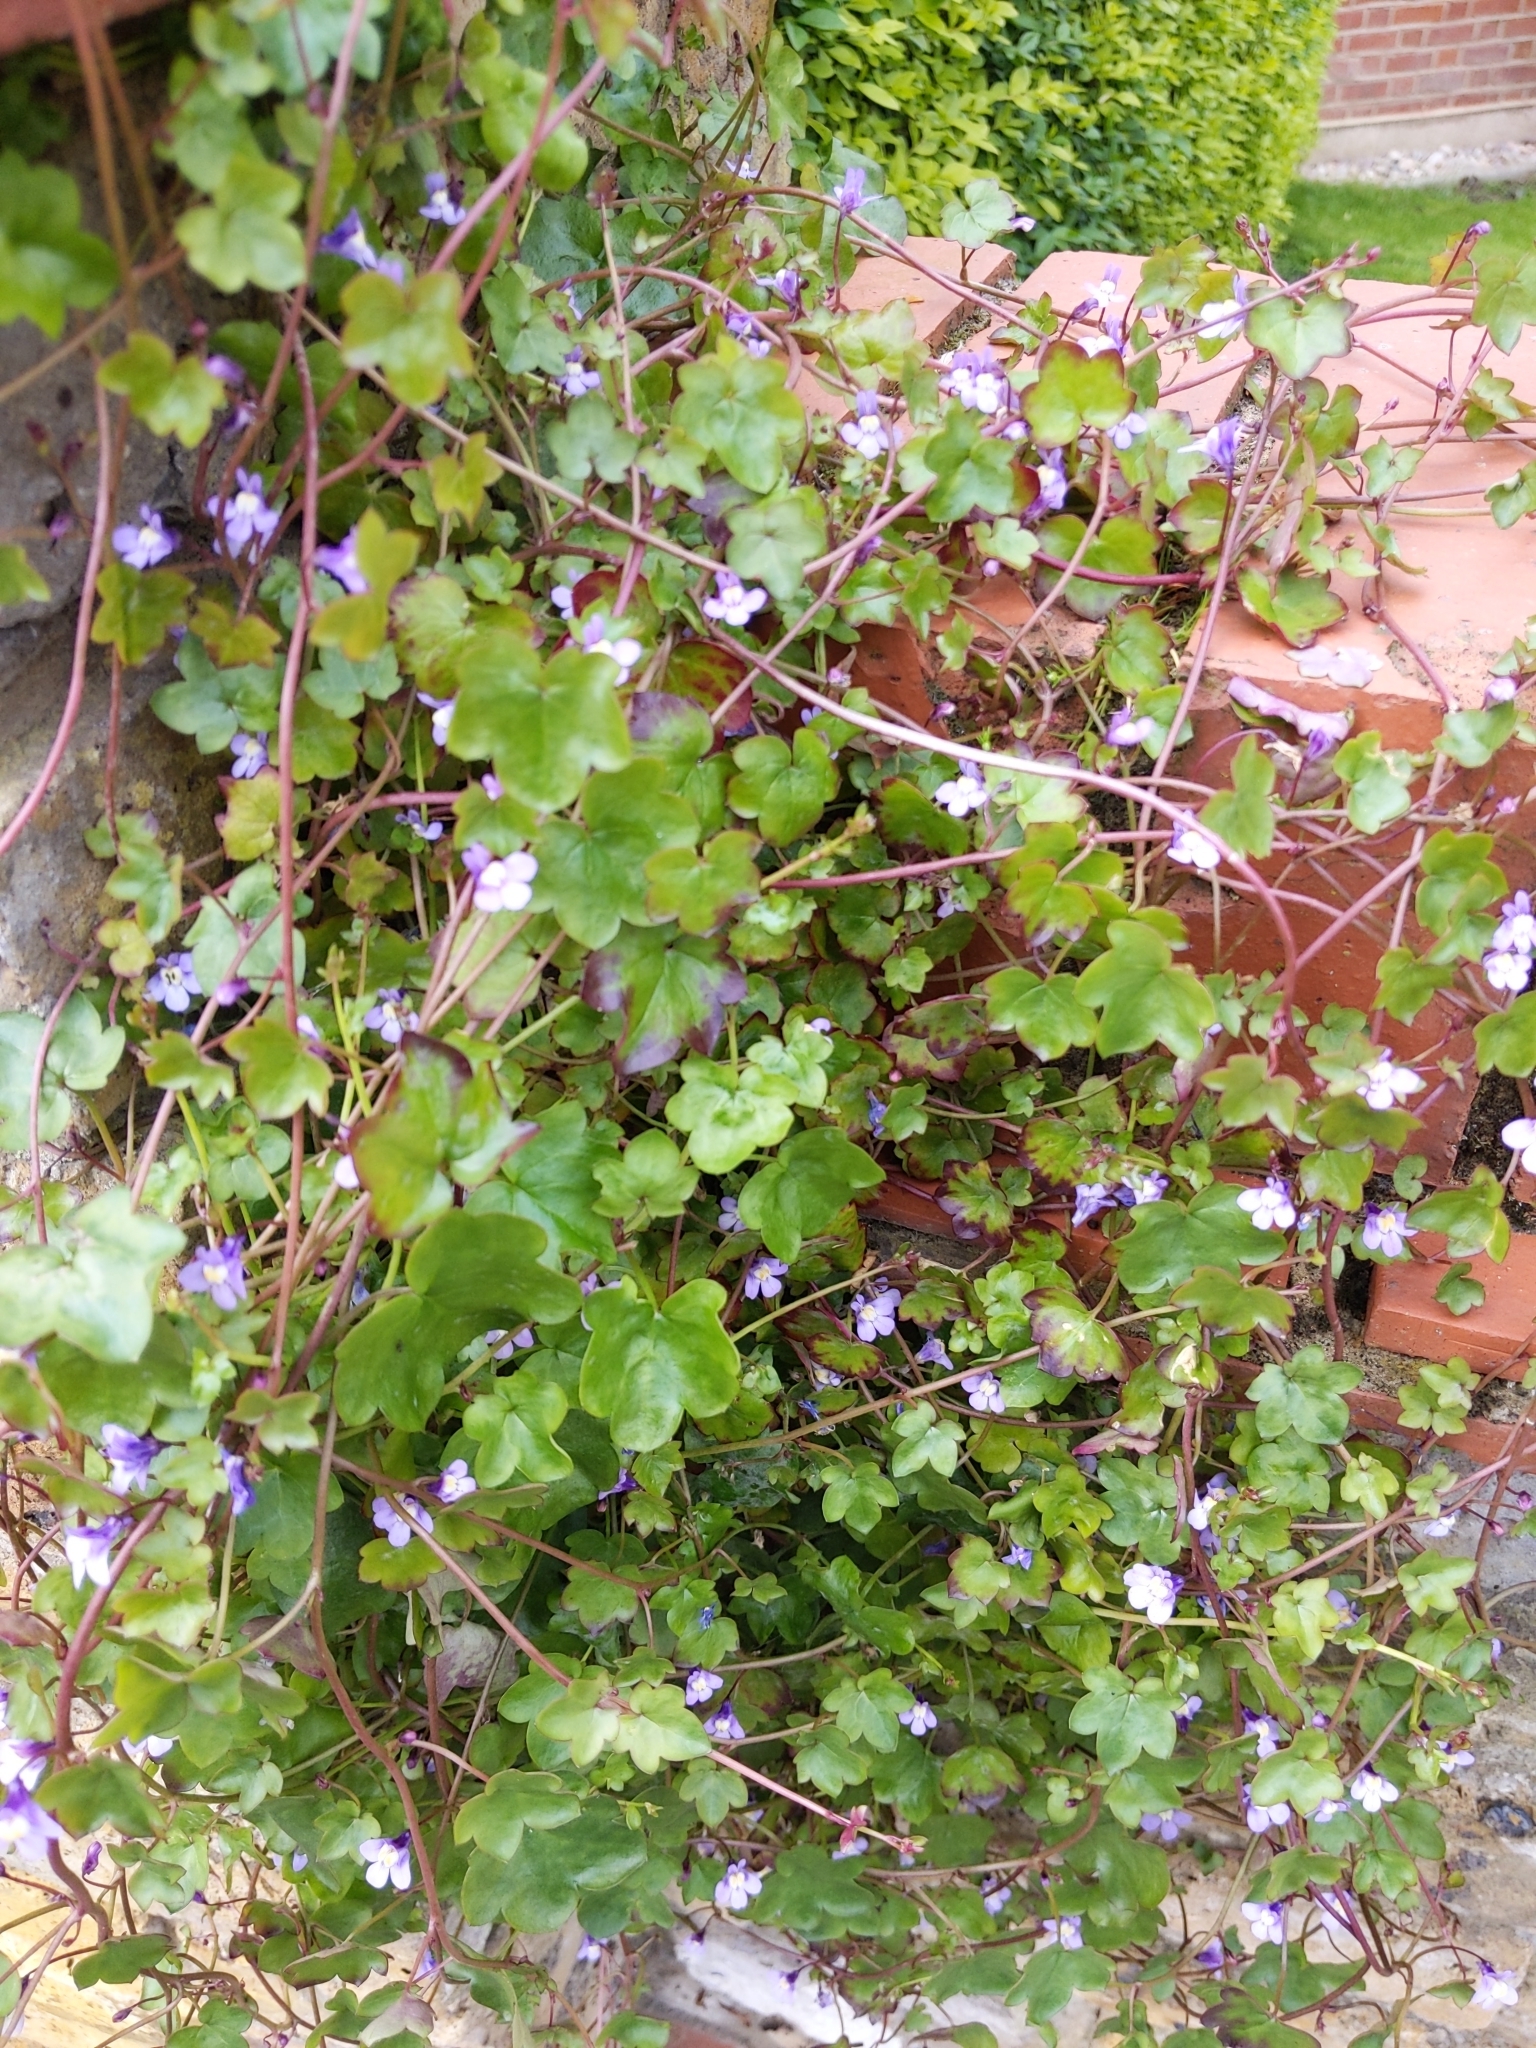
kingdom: Plantae
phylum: Tracheophyta
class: Magnoliopsida
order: Lamiales
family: Plantaginaceae
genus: Cymbalaria
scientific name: Cymbalaria muralis
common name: Ivy-leaved toadflax
